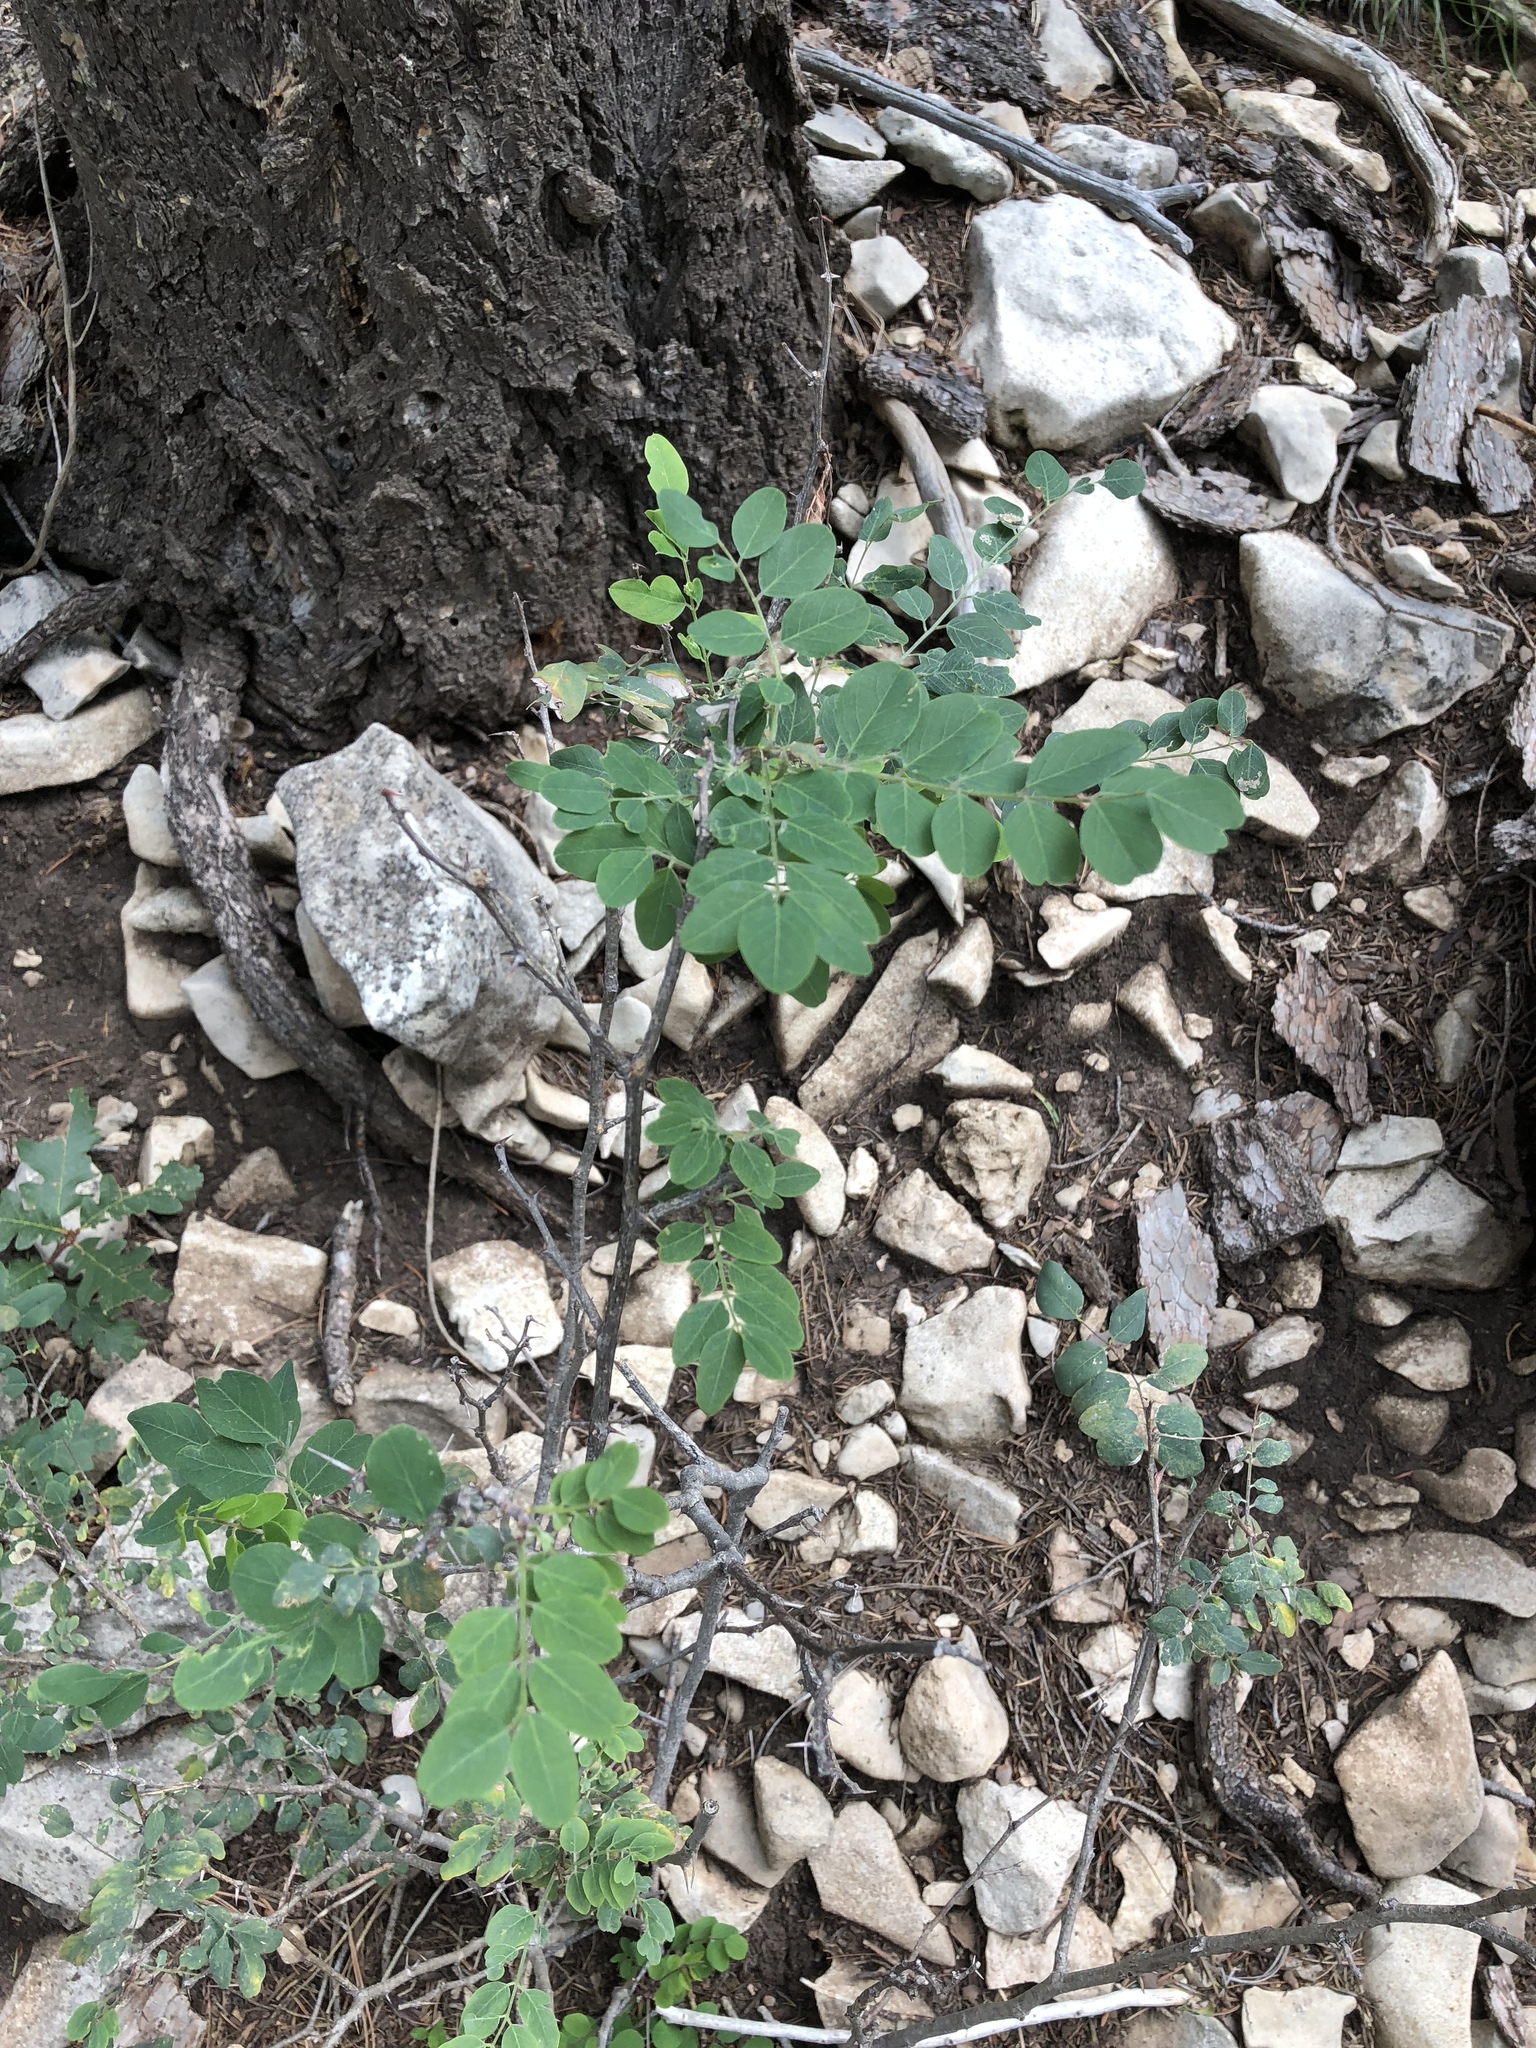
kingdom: Plantae
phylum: Tracheophyta
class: Magnoliopsida
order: Fabales
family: Fabaceae
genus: Robinia
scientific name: Robinia neomexicana
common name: New mexico locust
